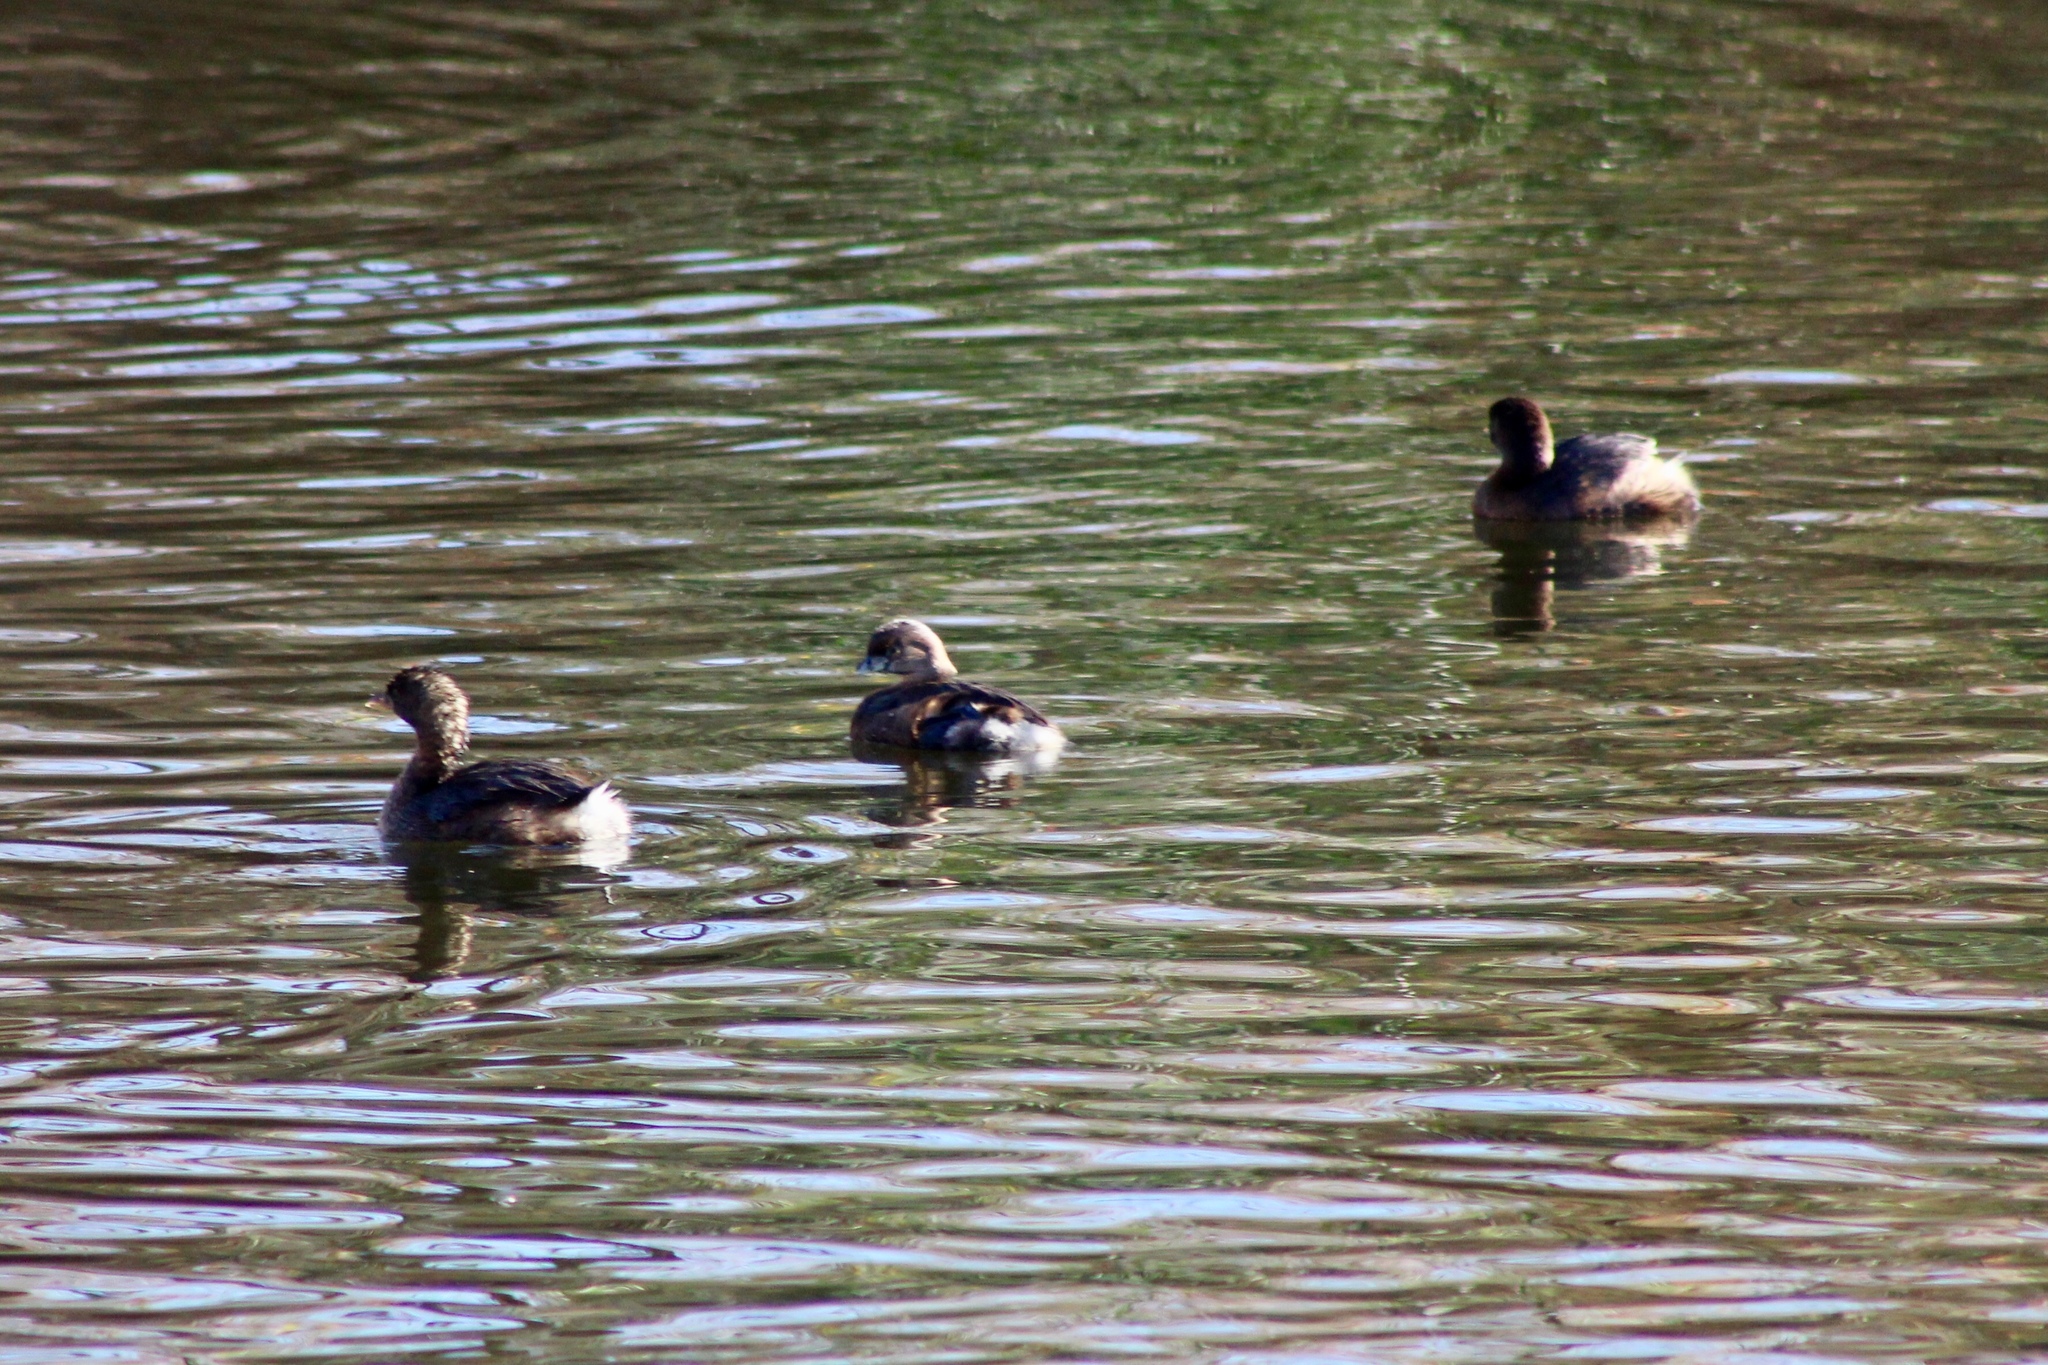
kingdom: Animalia
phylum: Chordata
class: Aves
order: Podicipediformes
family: Podicipedidae
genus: Podilymbus
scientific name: Podilymbus podiceps
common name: Pied-billed grebe
